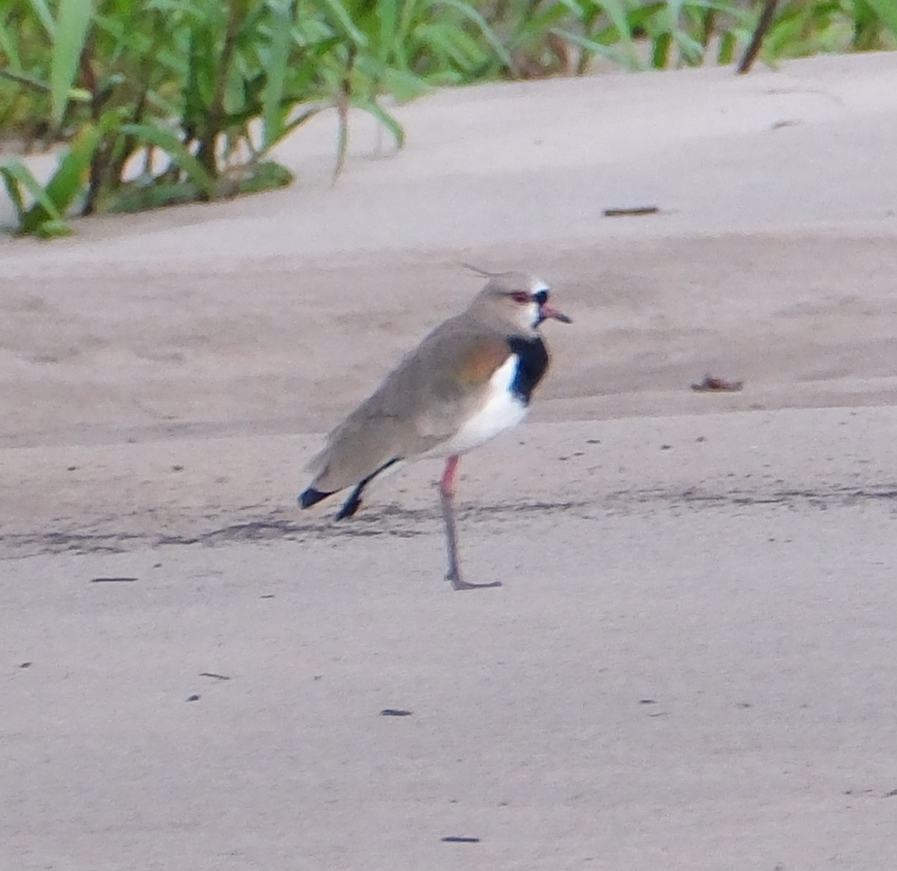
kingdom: Animalia
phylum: Chordata
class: Aves
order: Charadriiformes
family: Charadriidae
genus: Vanellus
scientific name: Vanellus chilensis
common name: Southern lapwing
